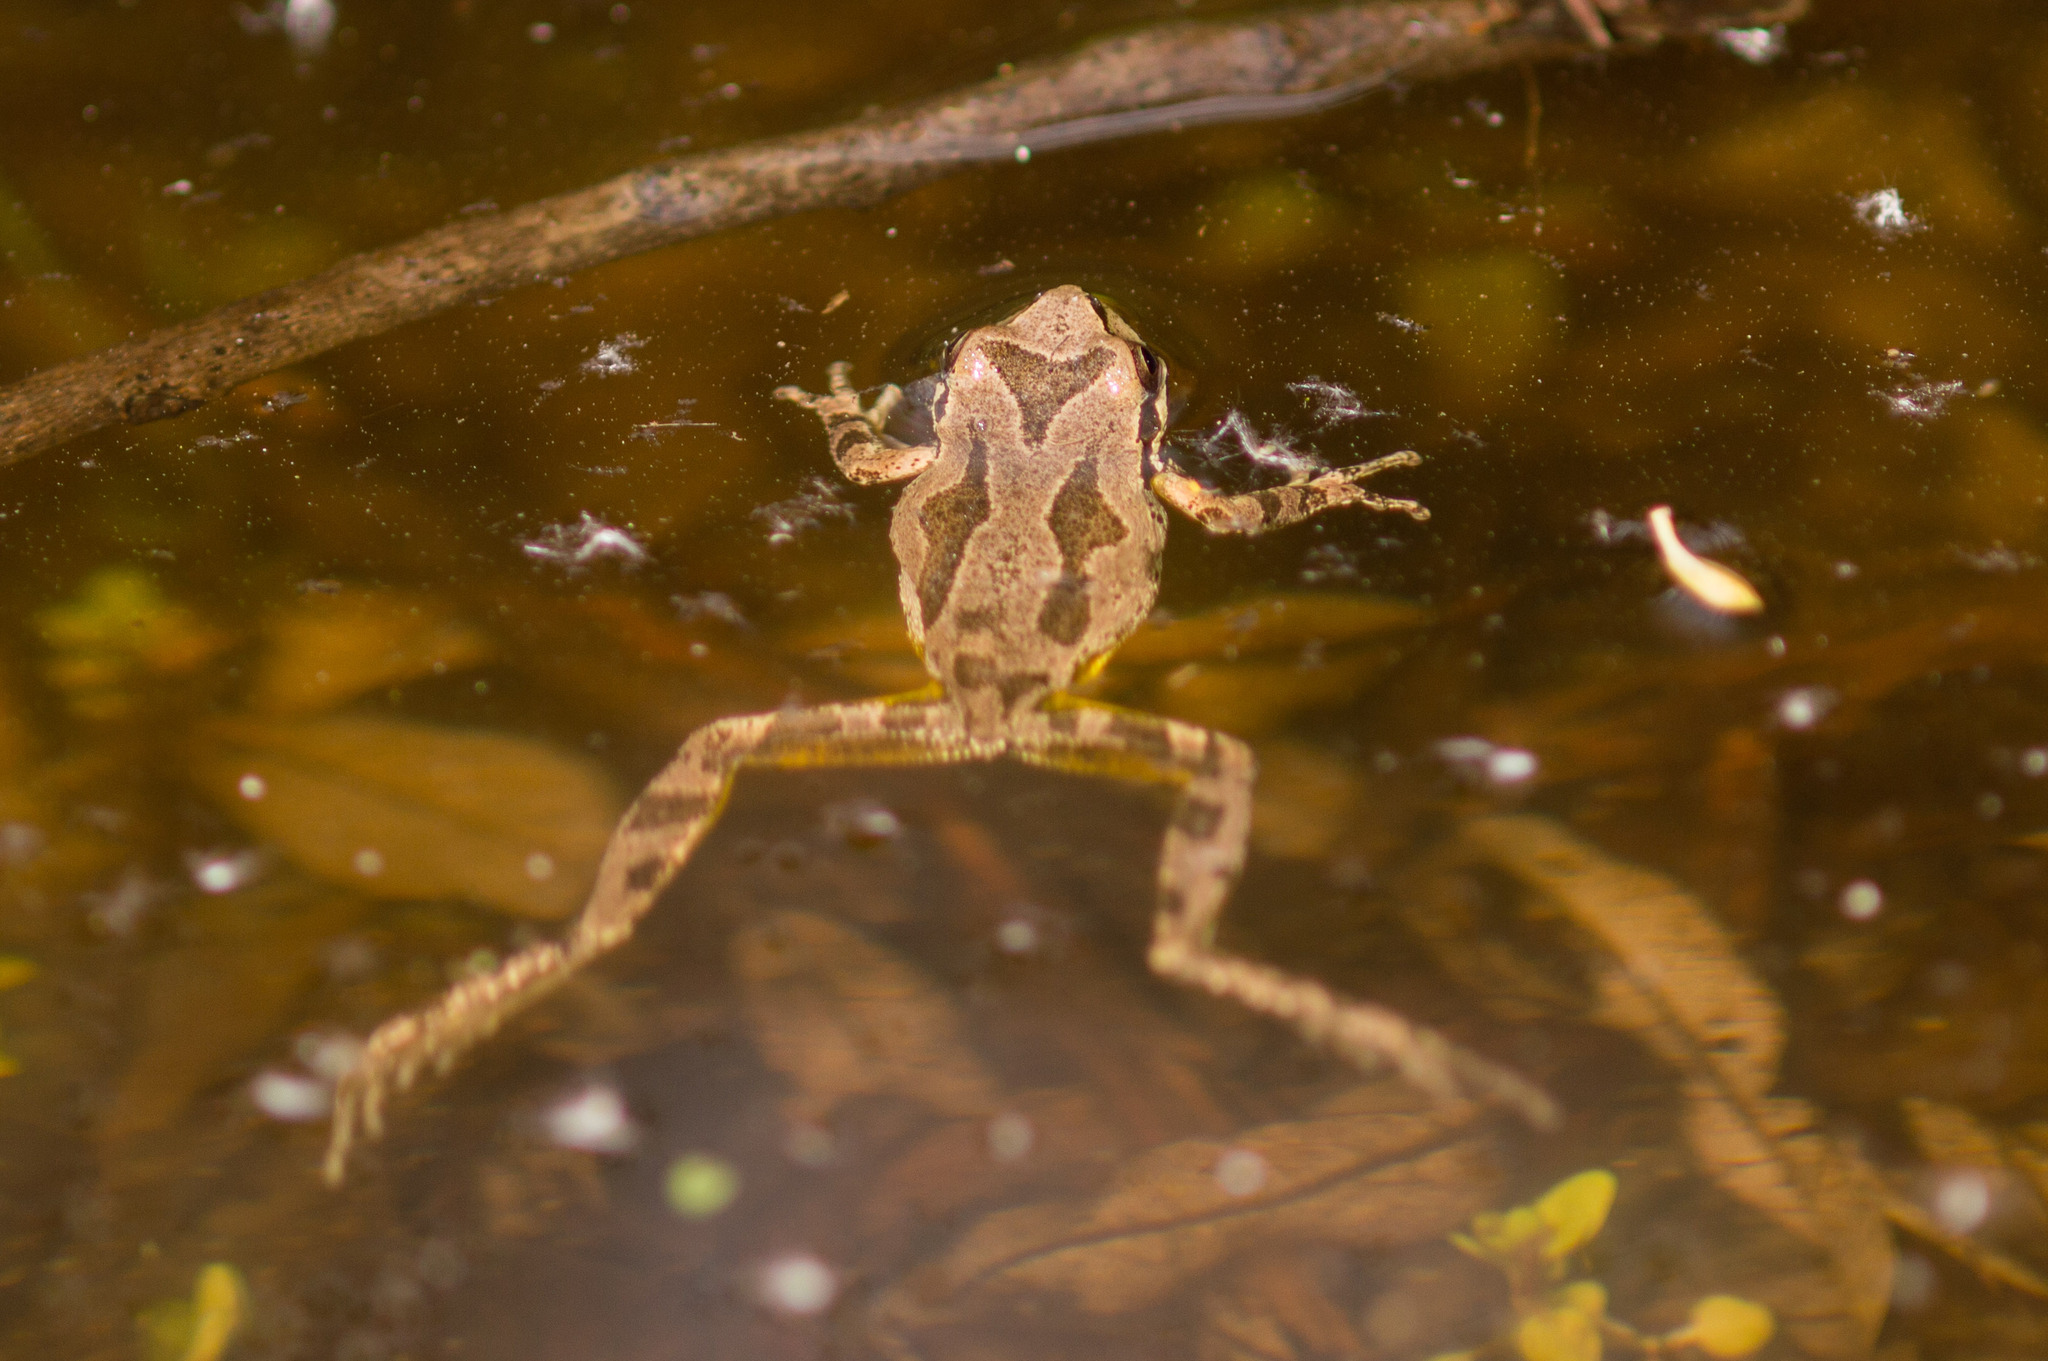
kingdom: Animalia
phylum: Chordata
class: Amphibia
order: Anura
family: Hylidae
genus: Pseudacris
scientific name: Pseudacris regilla
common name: Pacific chorus frog
